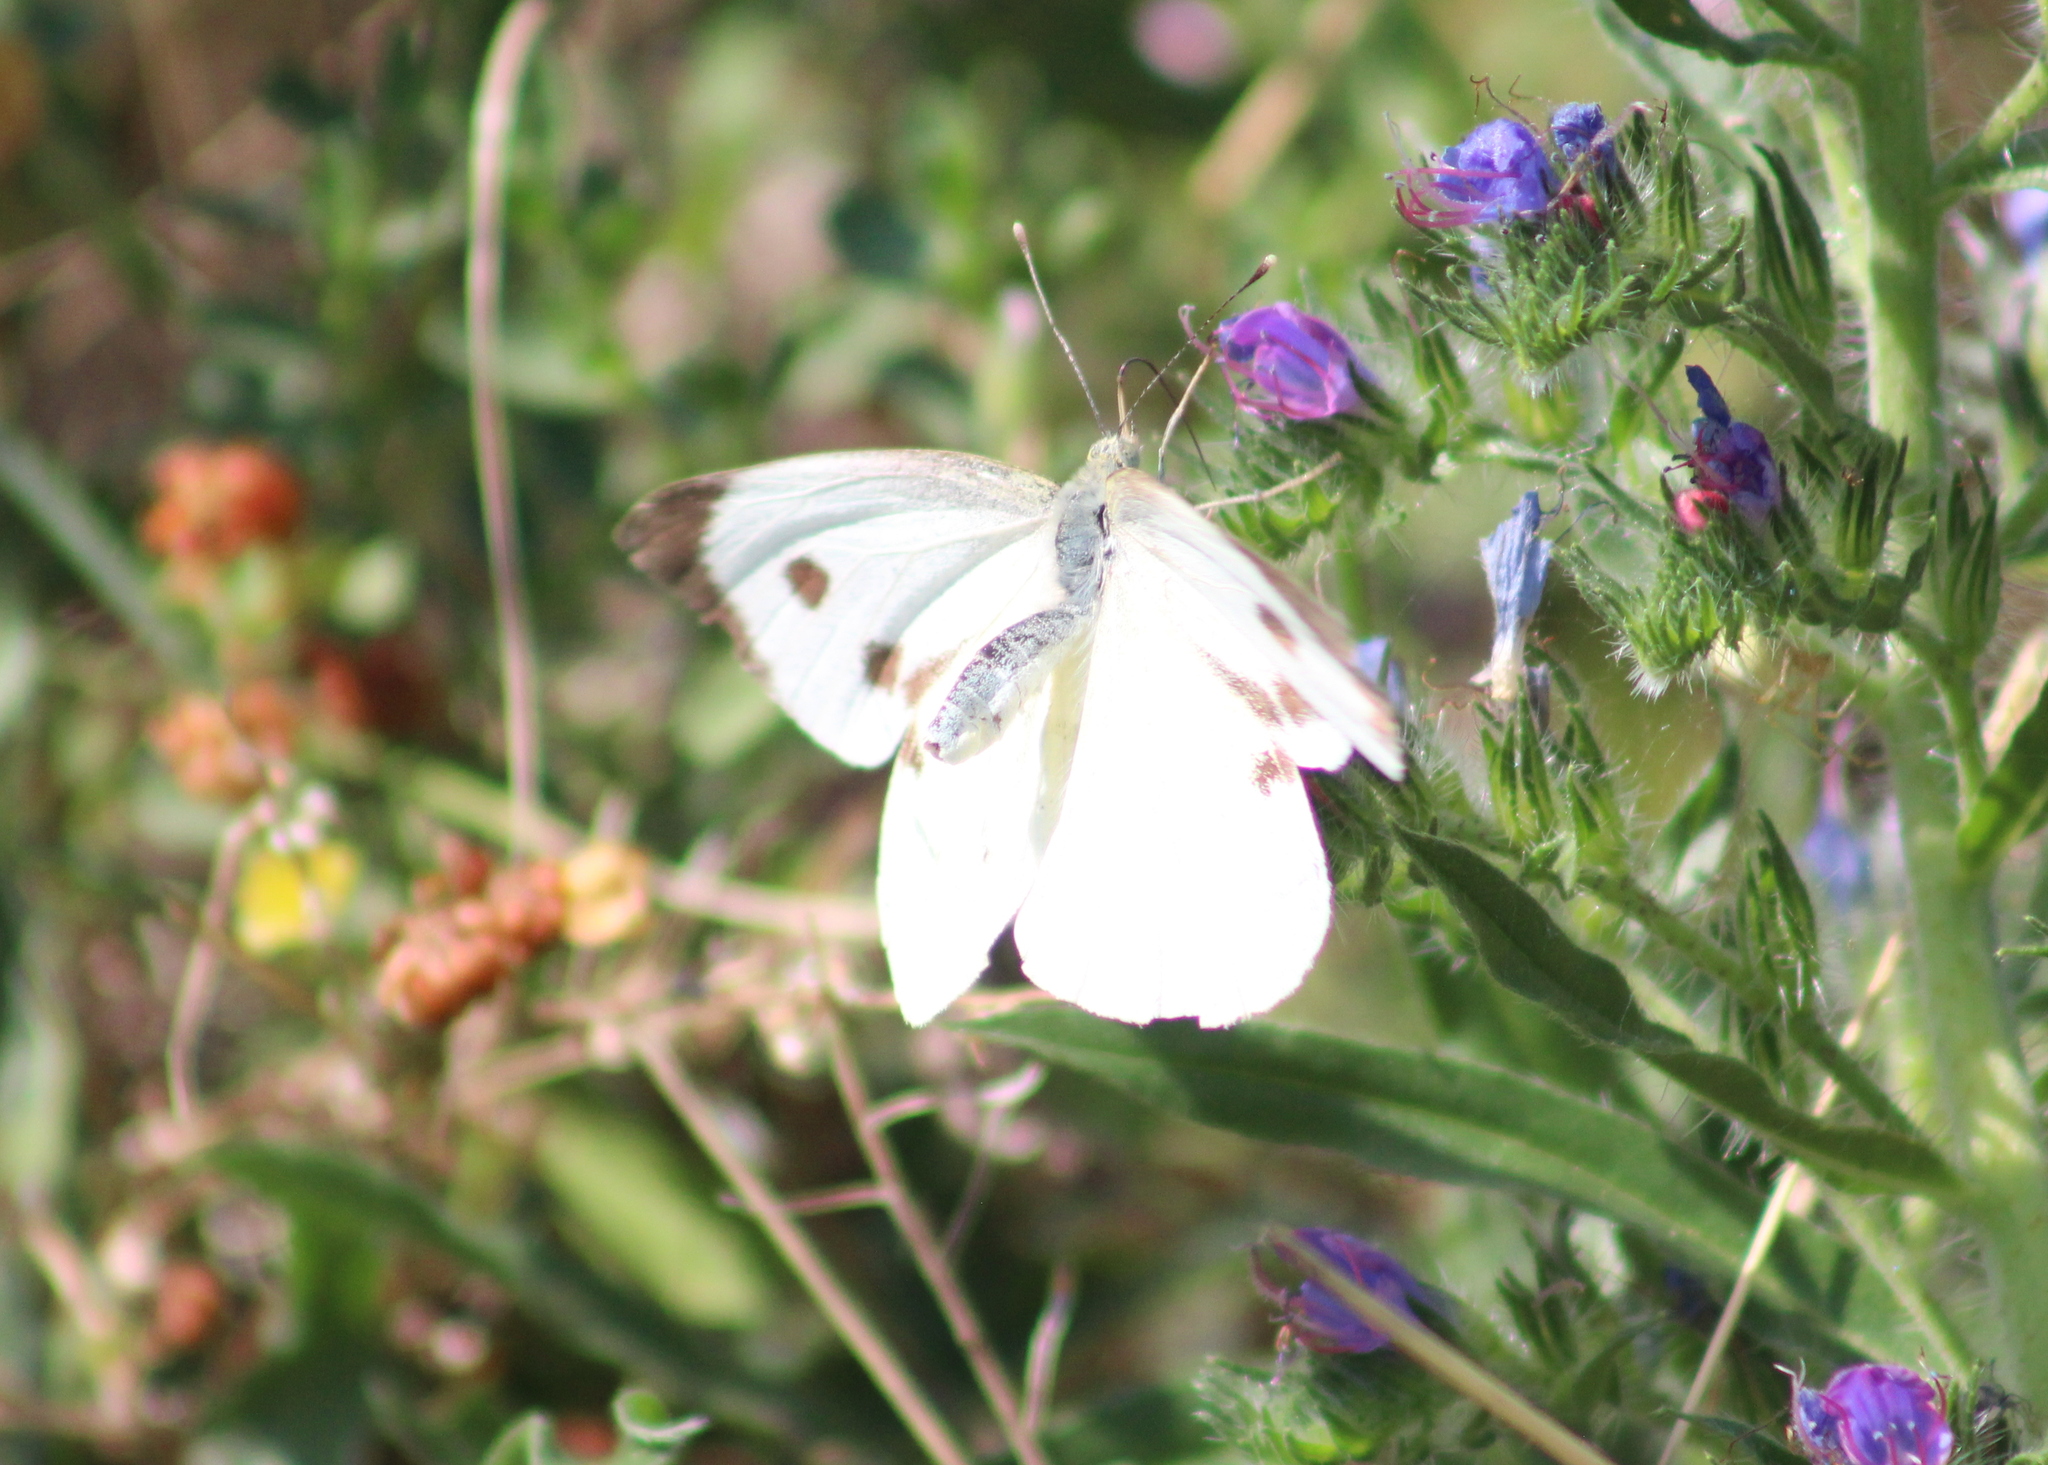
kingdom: Animalia
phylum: Arthropoda
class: Insecta
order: Lepidoptera
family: Pieridae
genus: Pieris
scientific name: Pieris brassicae
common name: Large white
